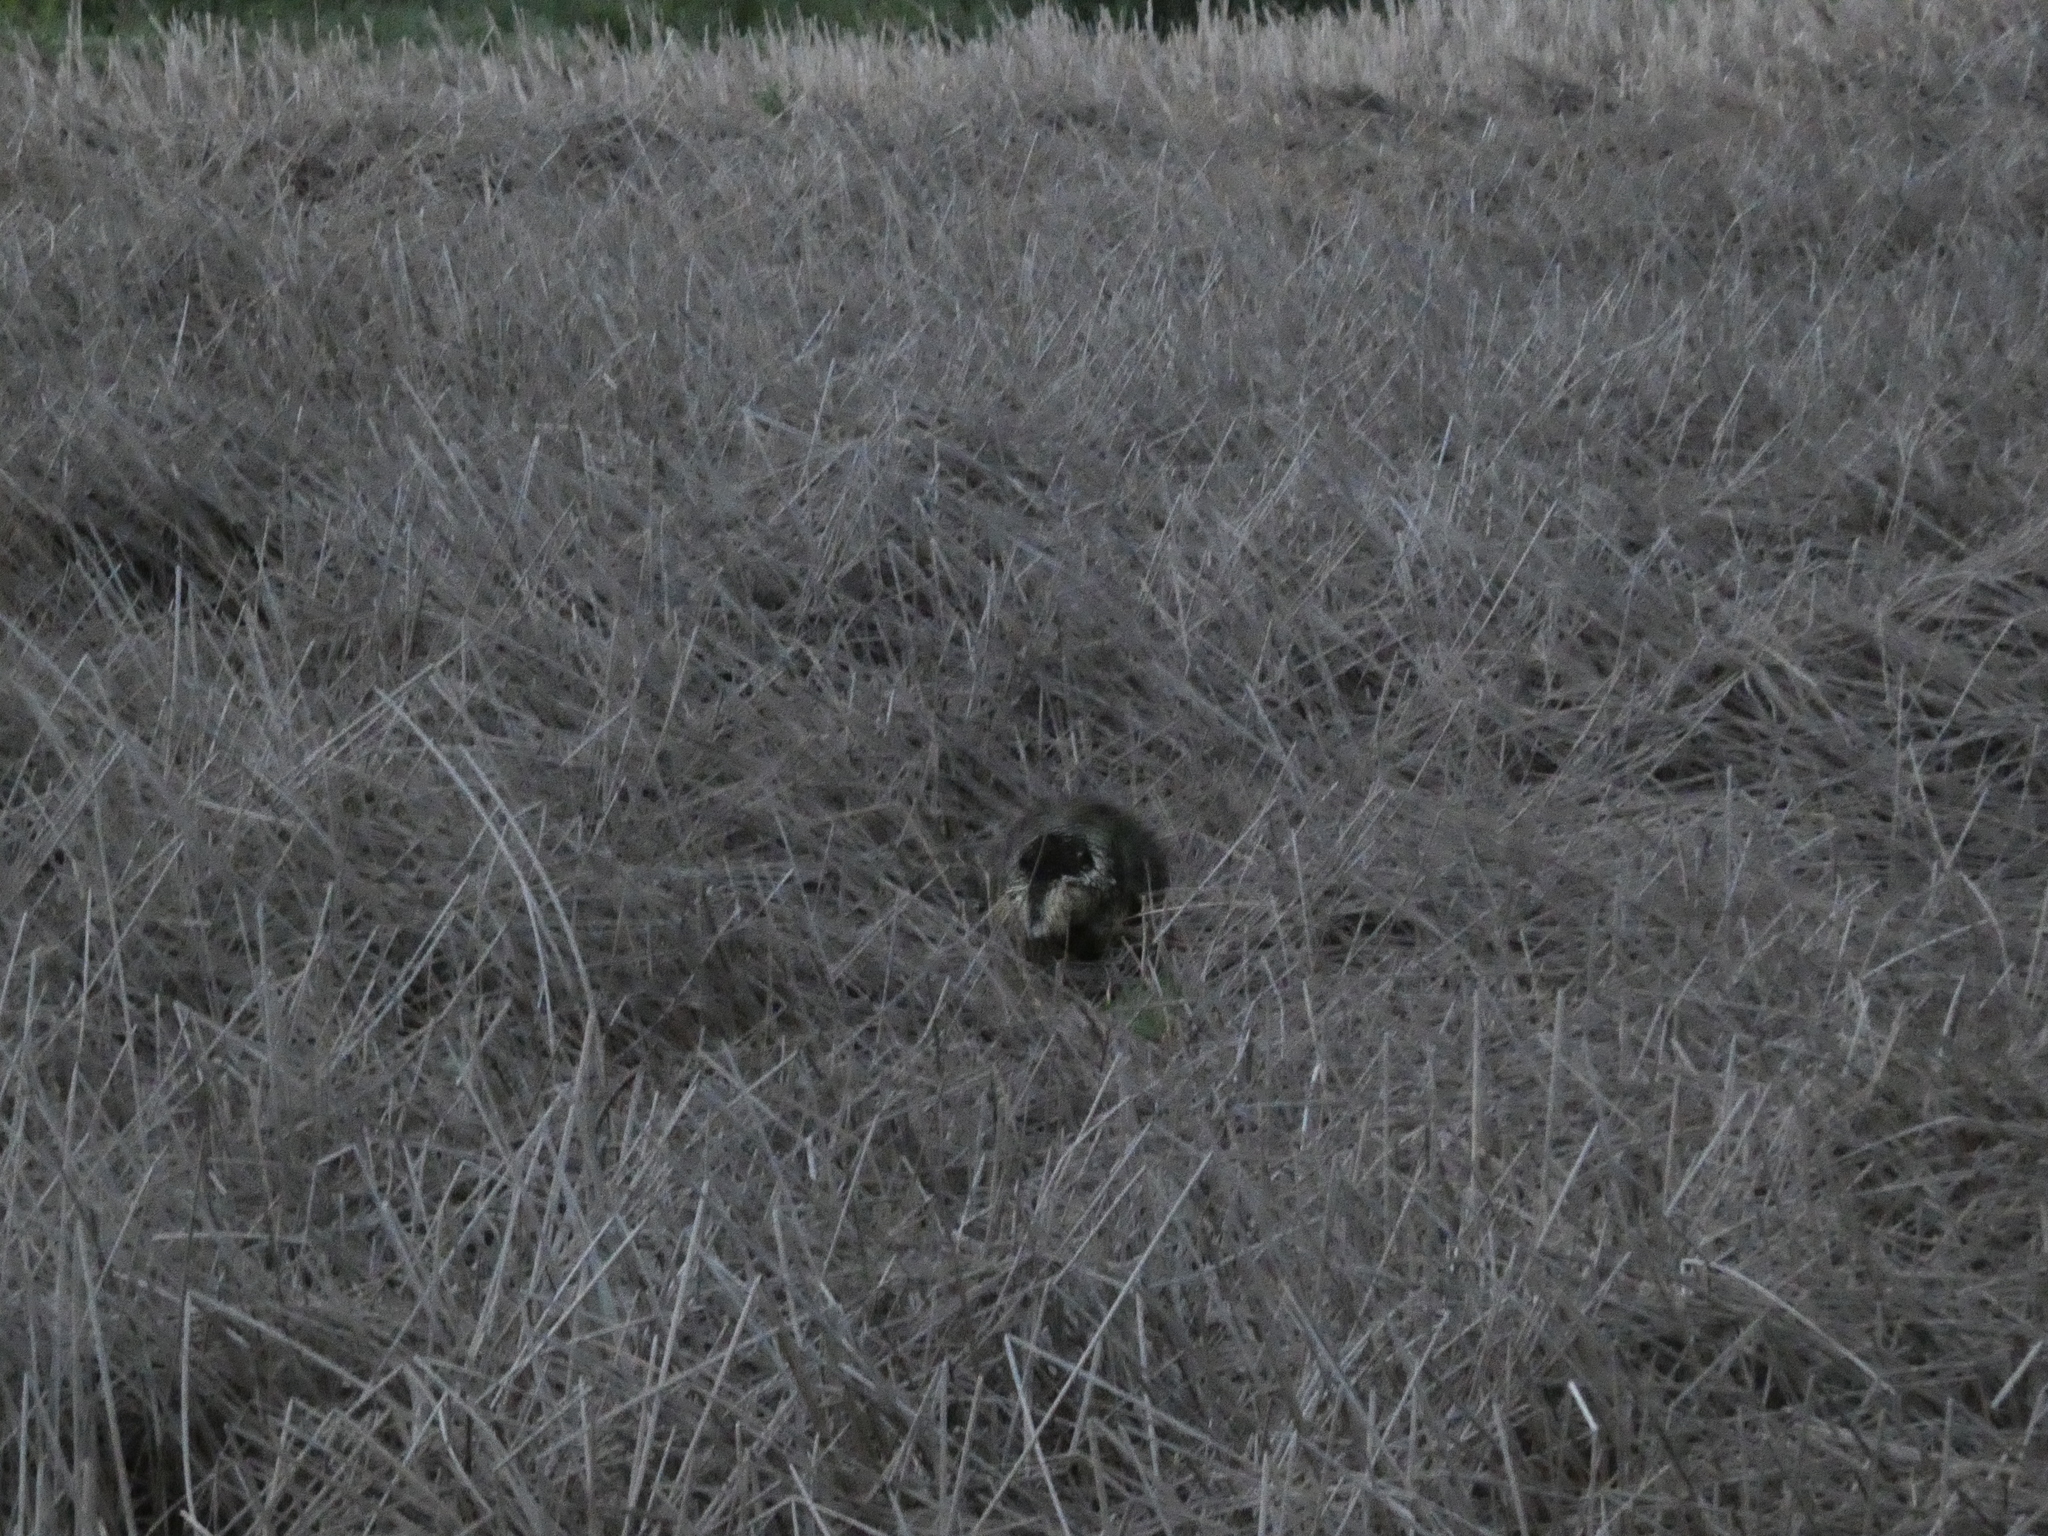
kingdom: Animalia
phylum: Chordata
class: Mammalia
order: Rodentia
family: Erethizontidae
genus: Erethizon
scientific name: Erethizon dorsatus
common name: North american porcupine
